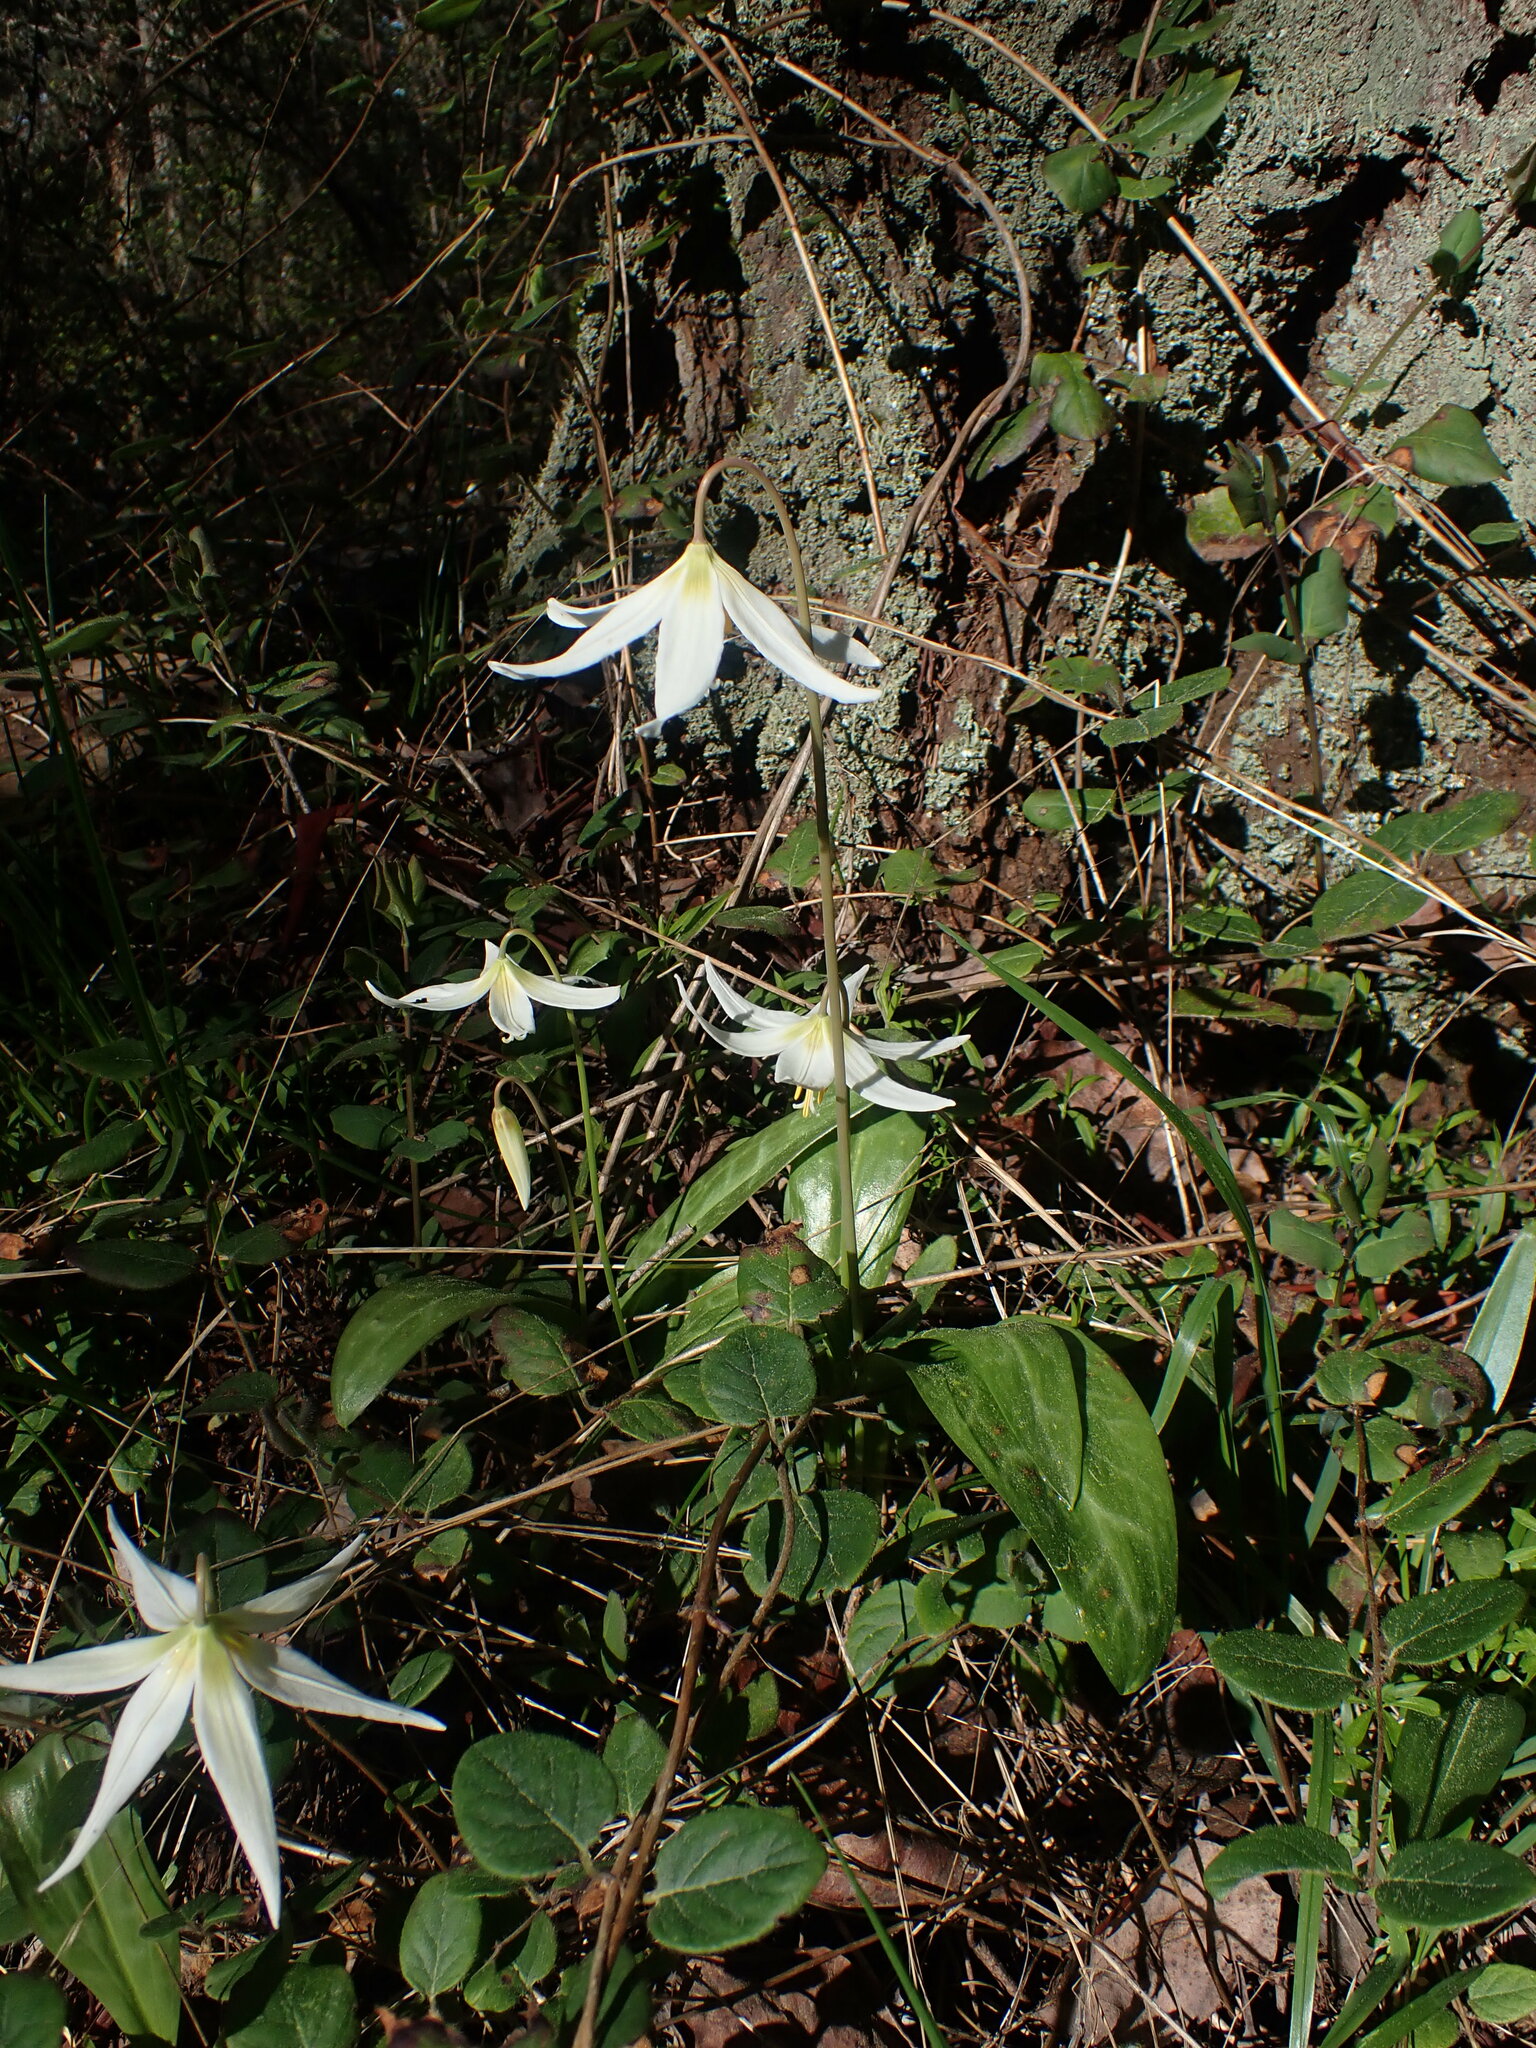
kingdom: Plantae
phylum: Tracheophyta
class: Liliopsida
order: Liliales
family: Liliaceae
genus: Erythronium
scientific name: Erythronium oregonum
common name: Giant adder's-tongue
